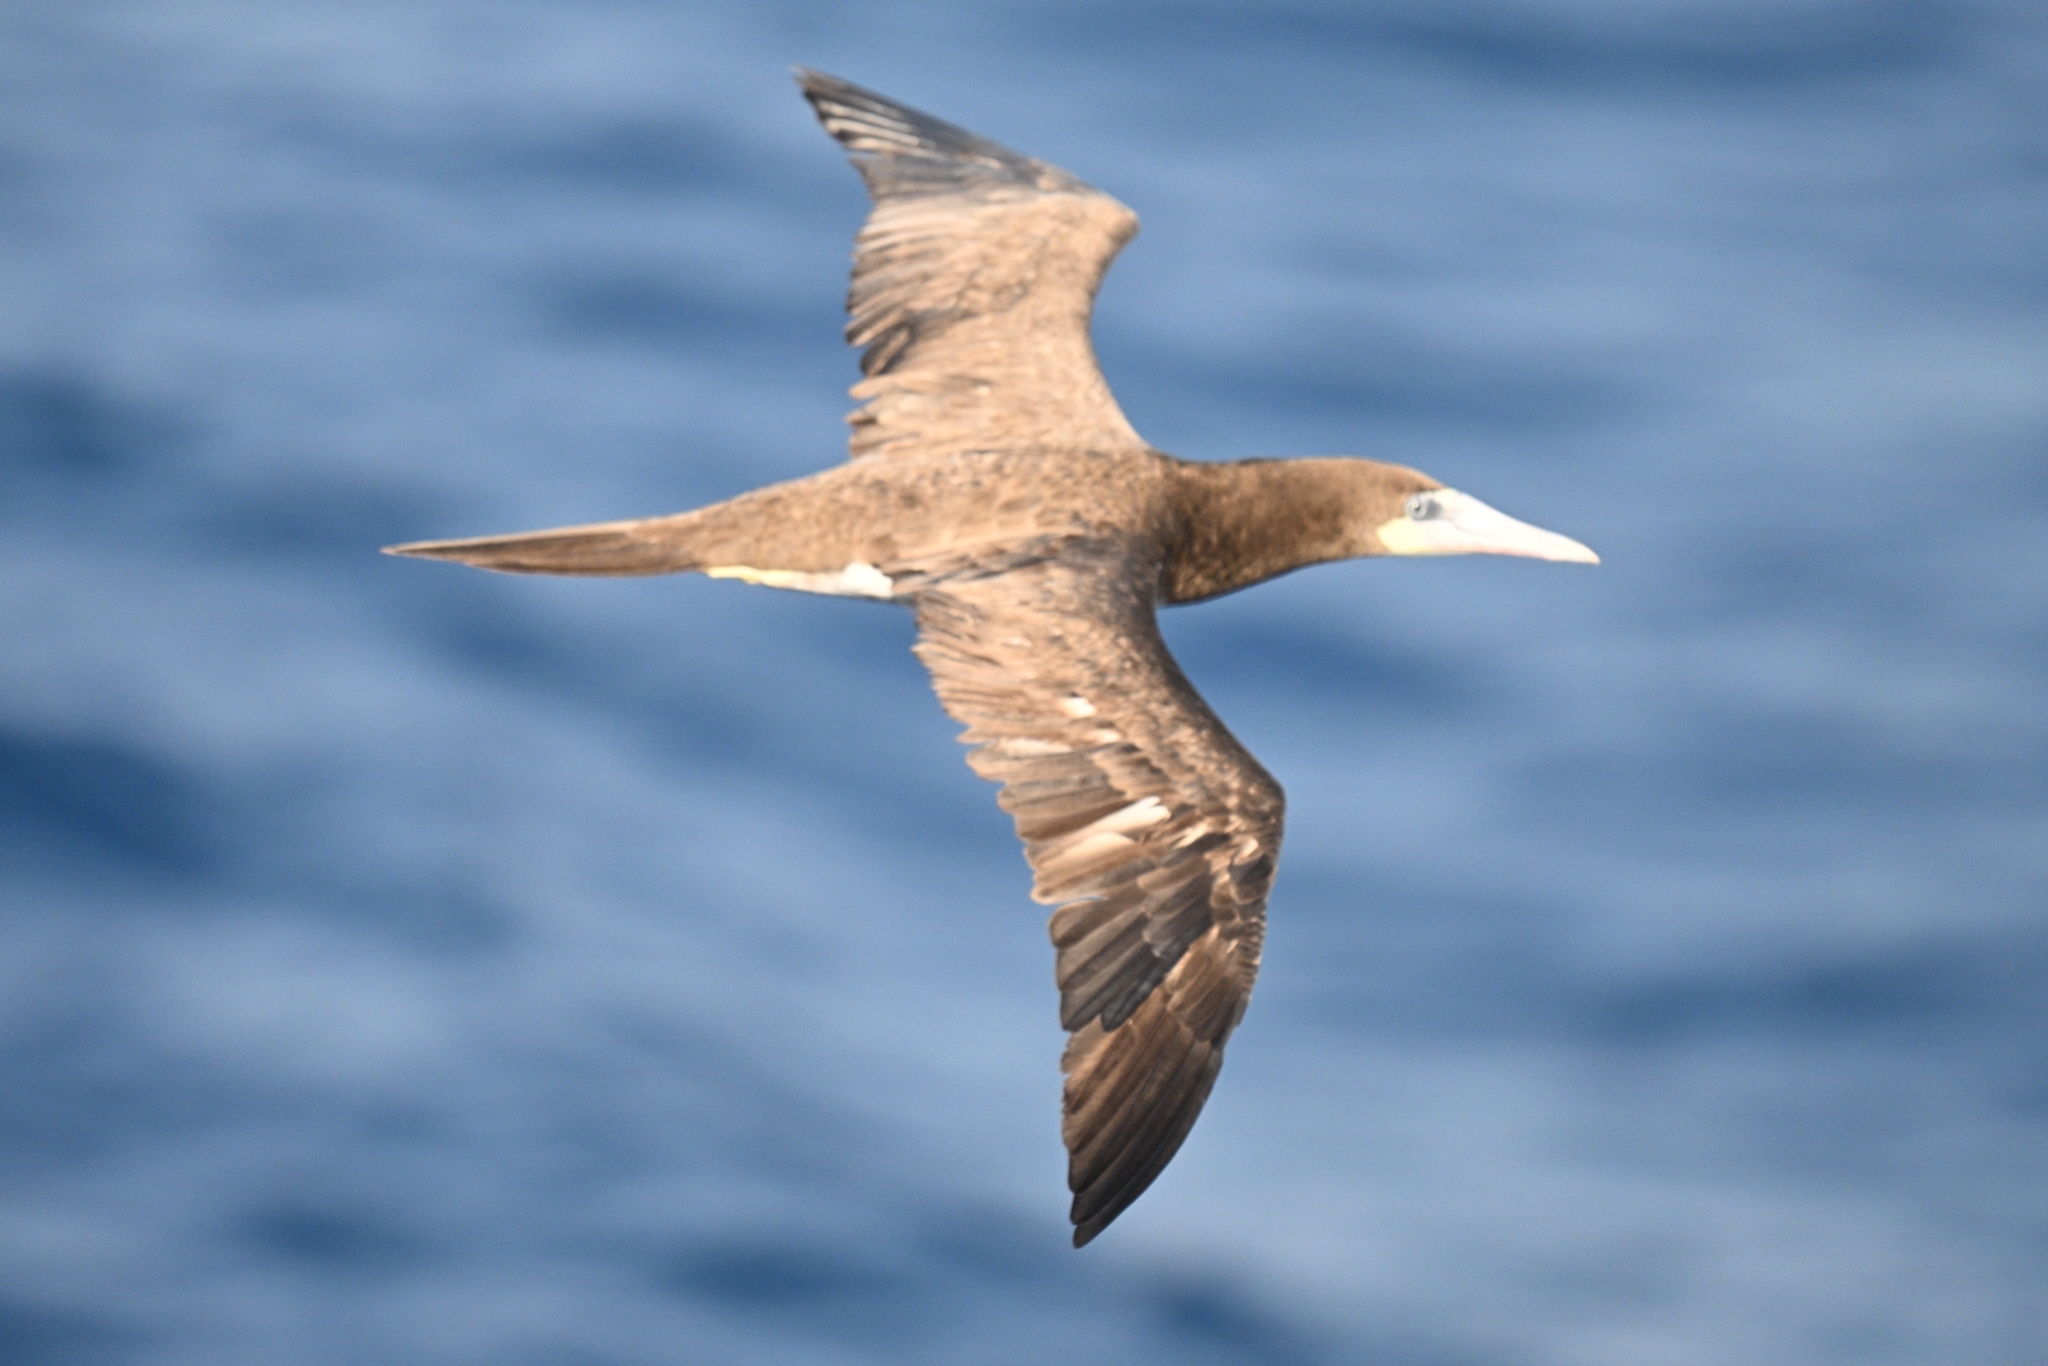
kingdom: Animalia
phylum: Chordata
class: Aves
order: Suliformes
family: Sulidae
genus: Sula
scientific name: Sula leucogaster
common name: Brown booby
